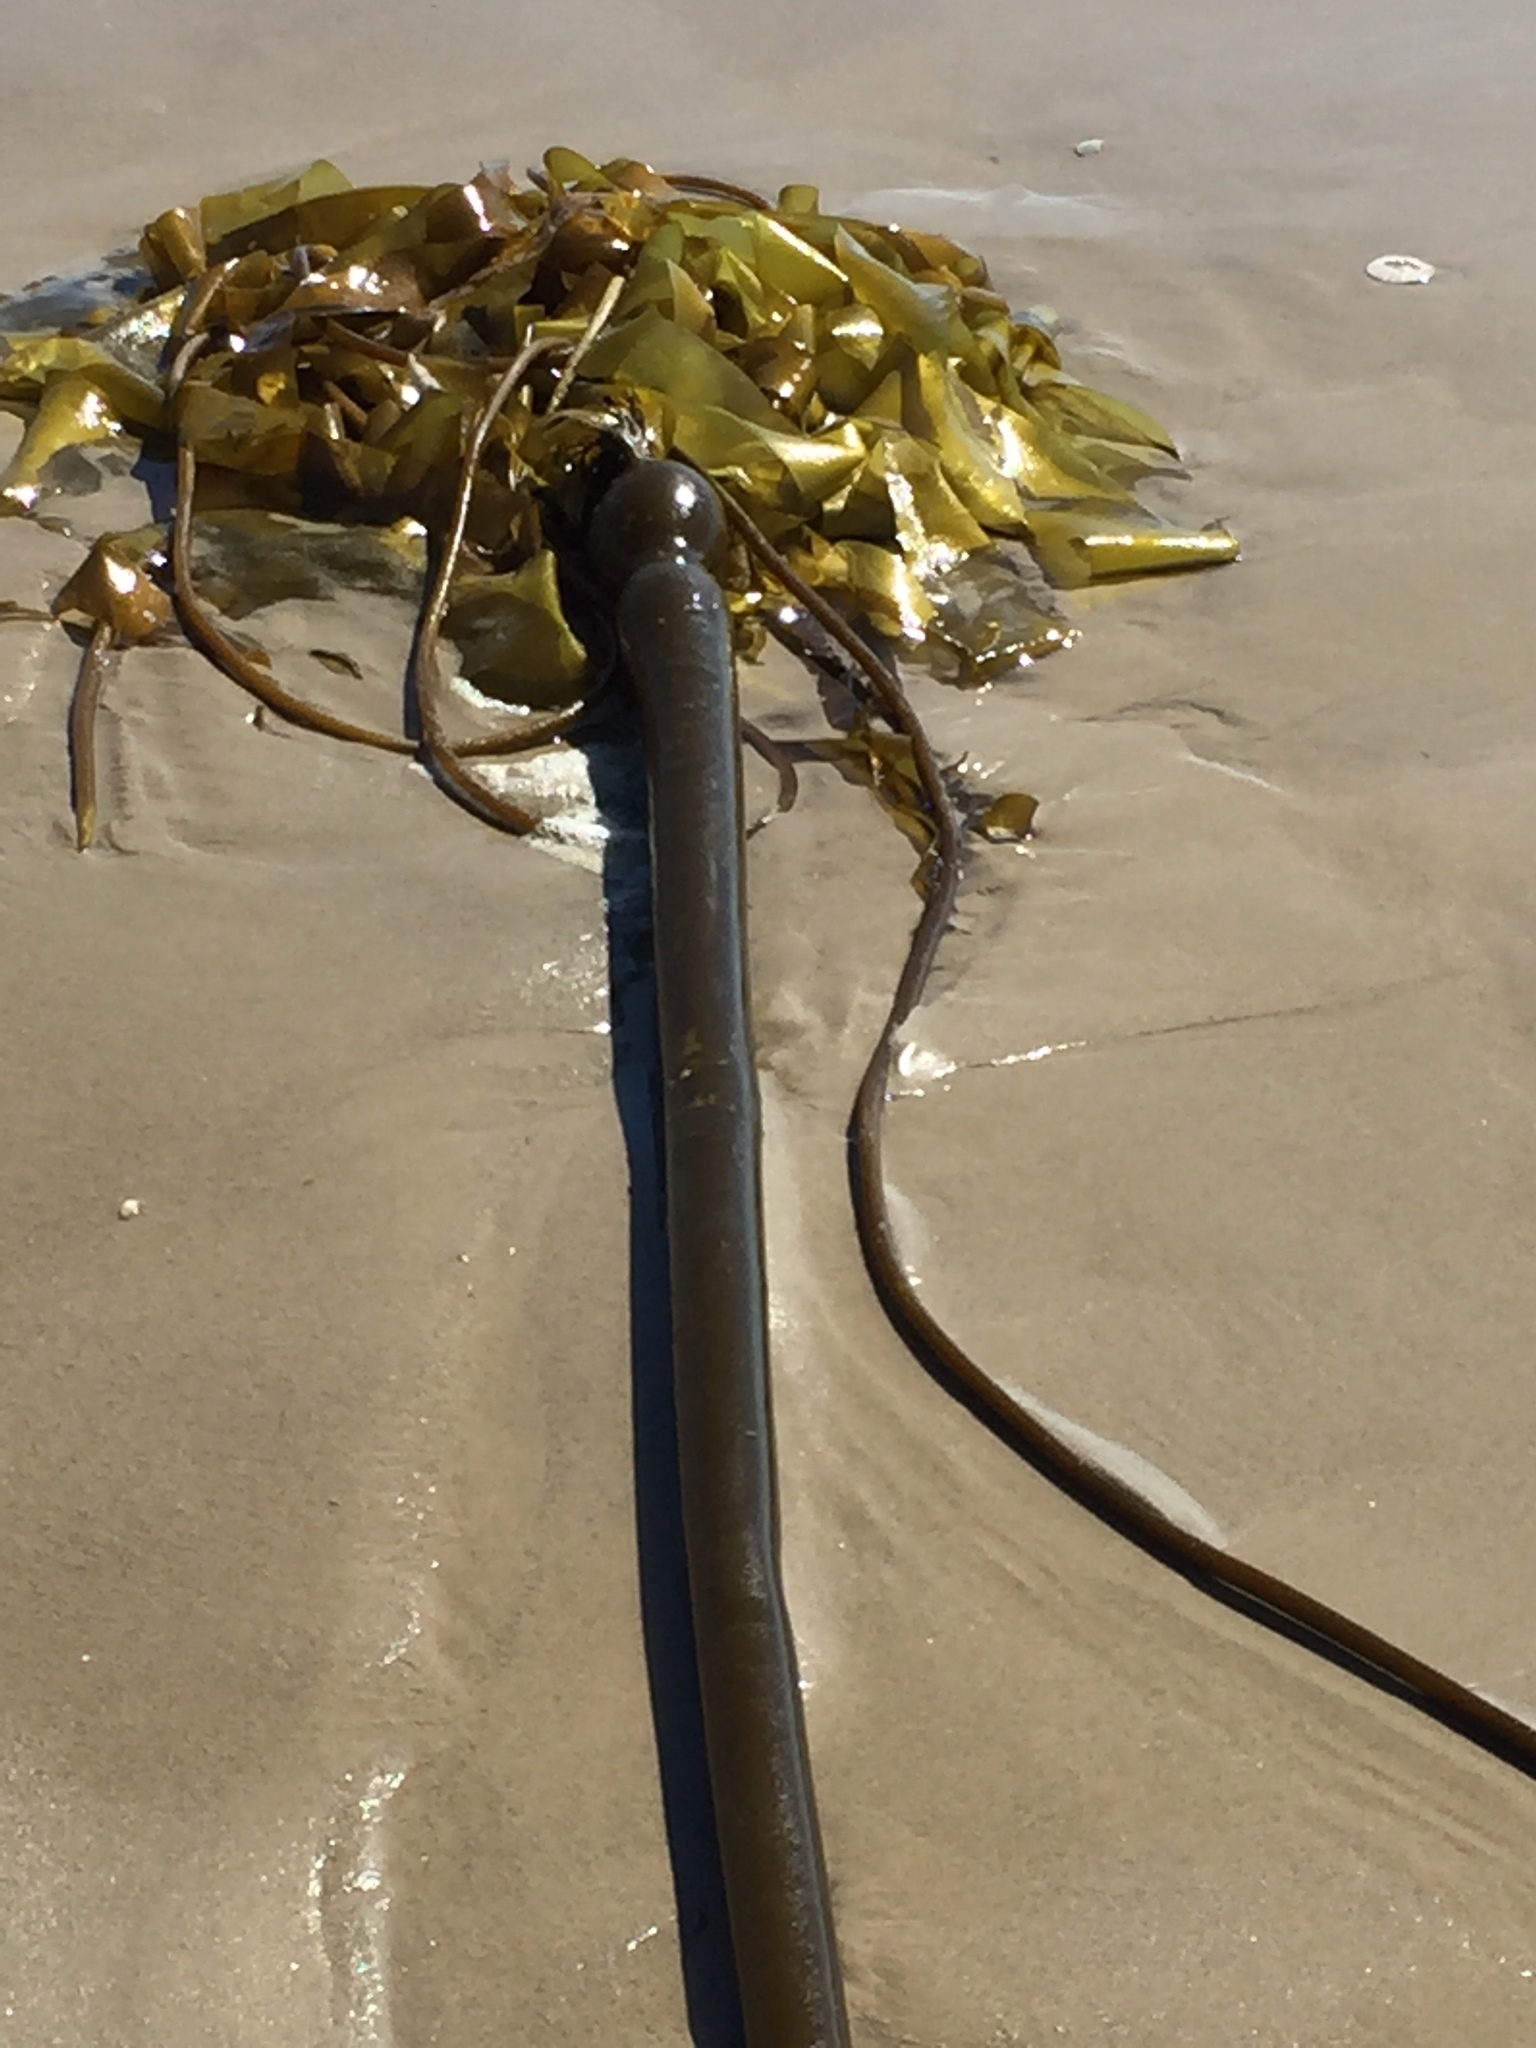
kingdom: Chromista
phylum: Ochrophyta
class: Phaeophyceae
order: Laminariales
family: Laminariaceae
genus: Nereocystis
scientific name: Nereocystis luetkeana
